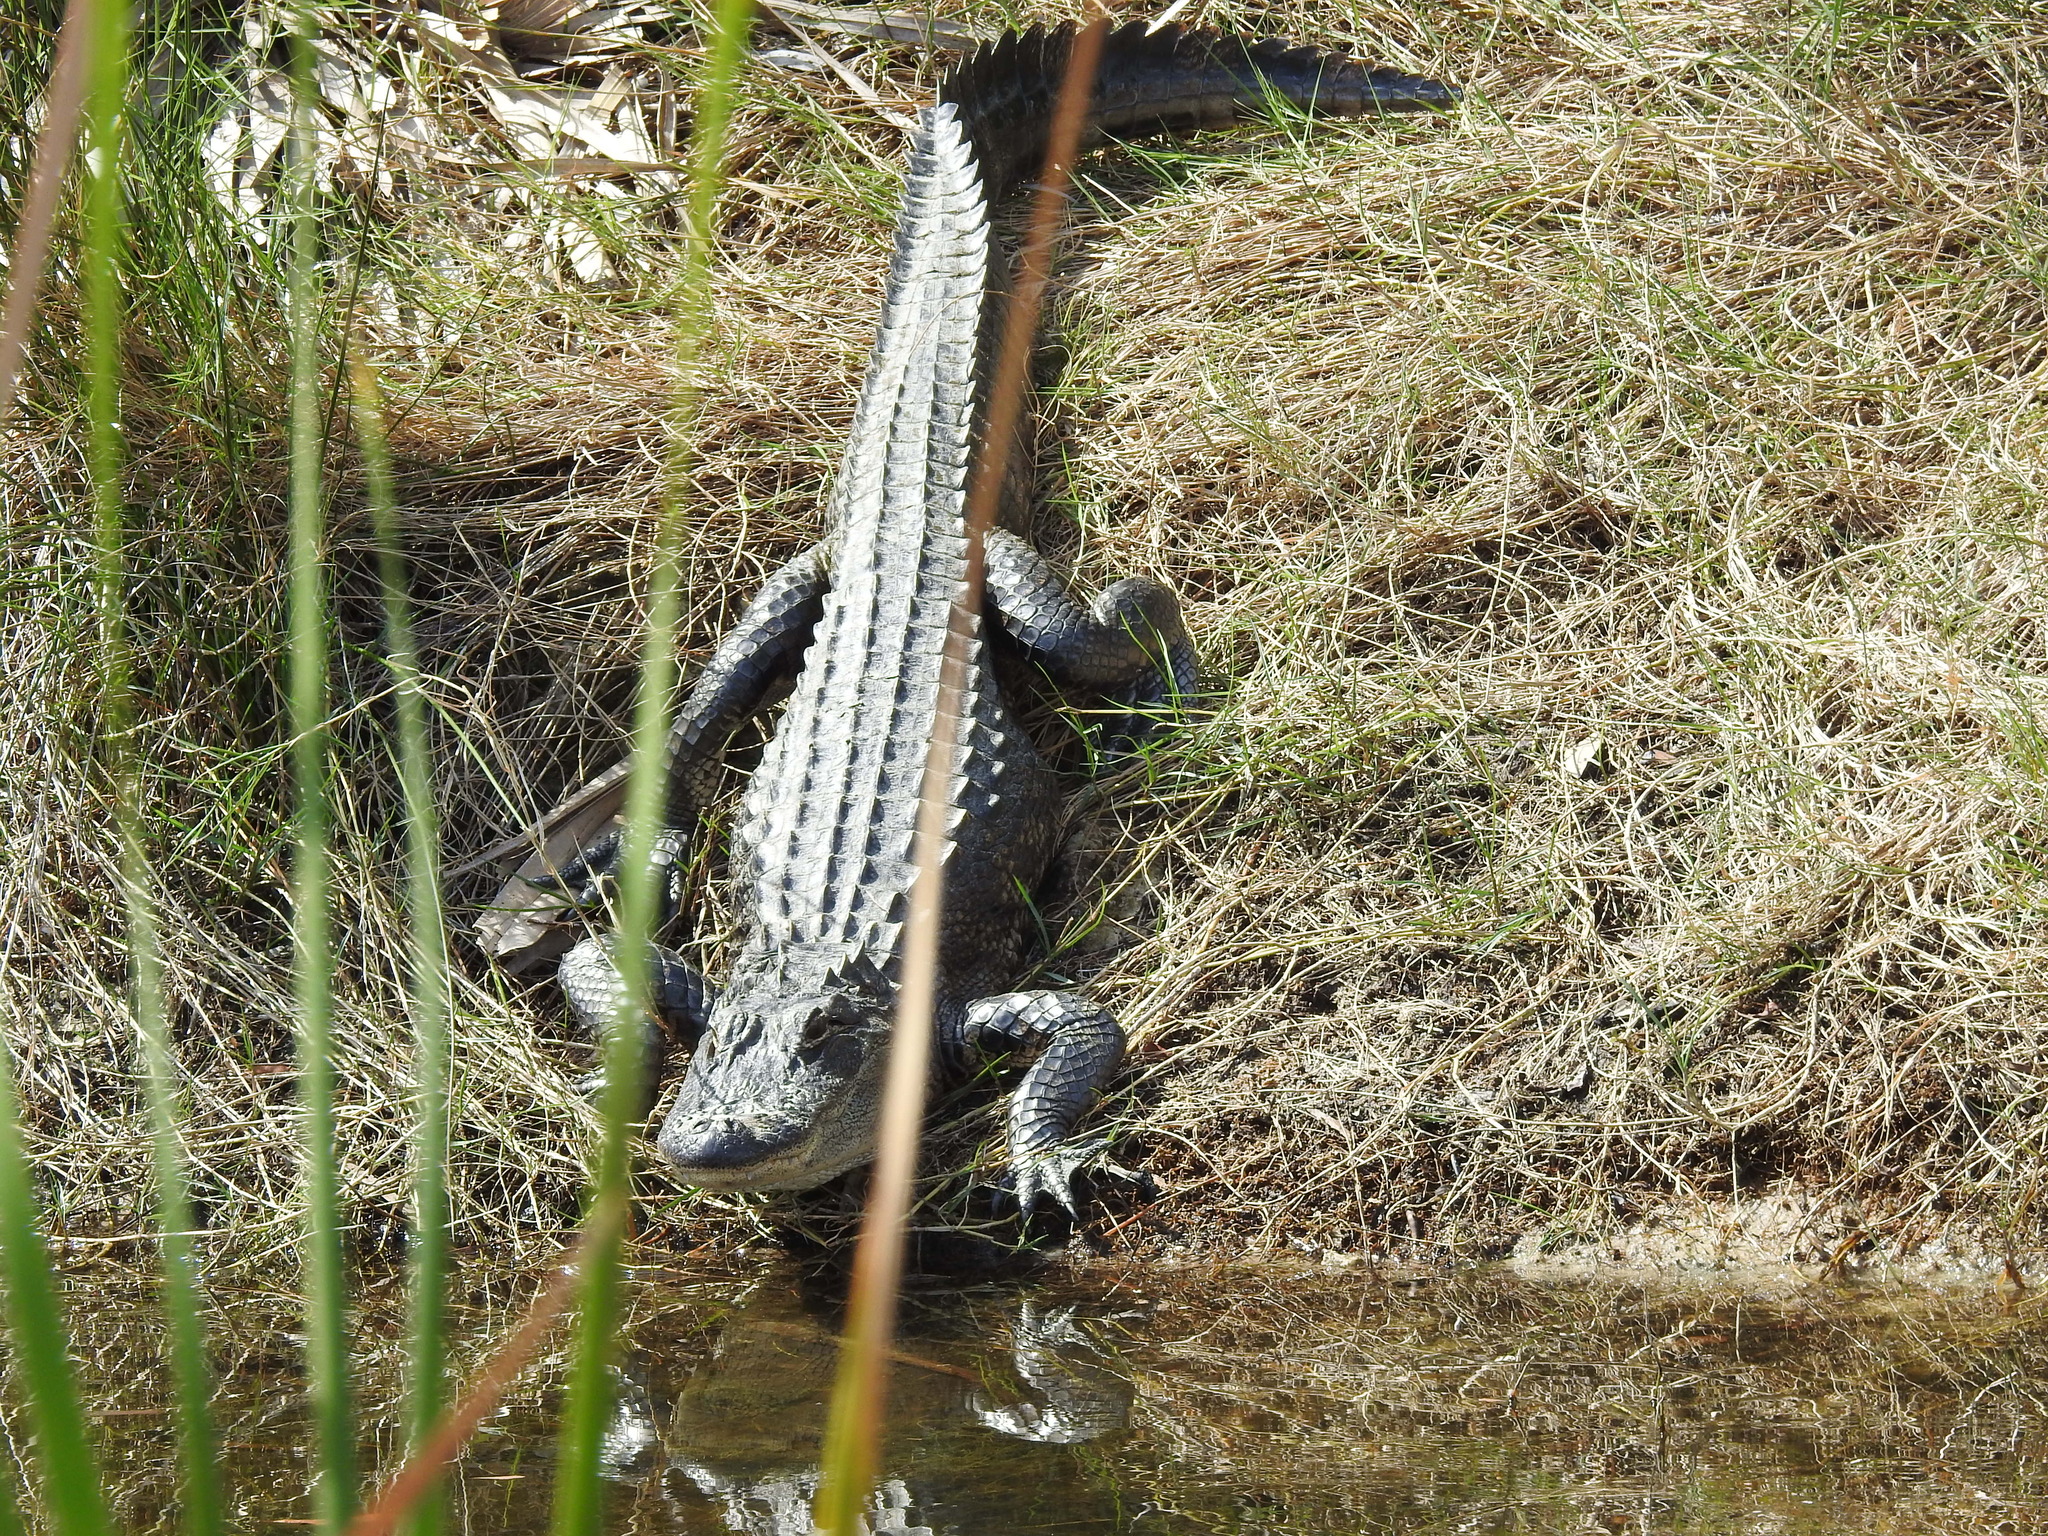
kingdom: Animalia
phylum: Chordata
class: Crocodylia
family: Alligatoridae
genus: Alligator
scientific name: Alligator mississippiensis
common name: American alligator
